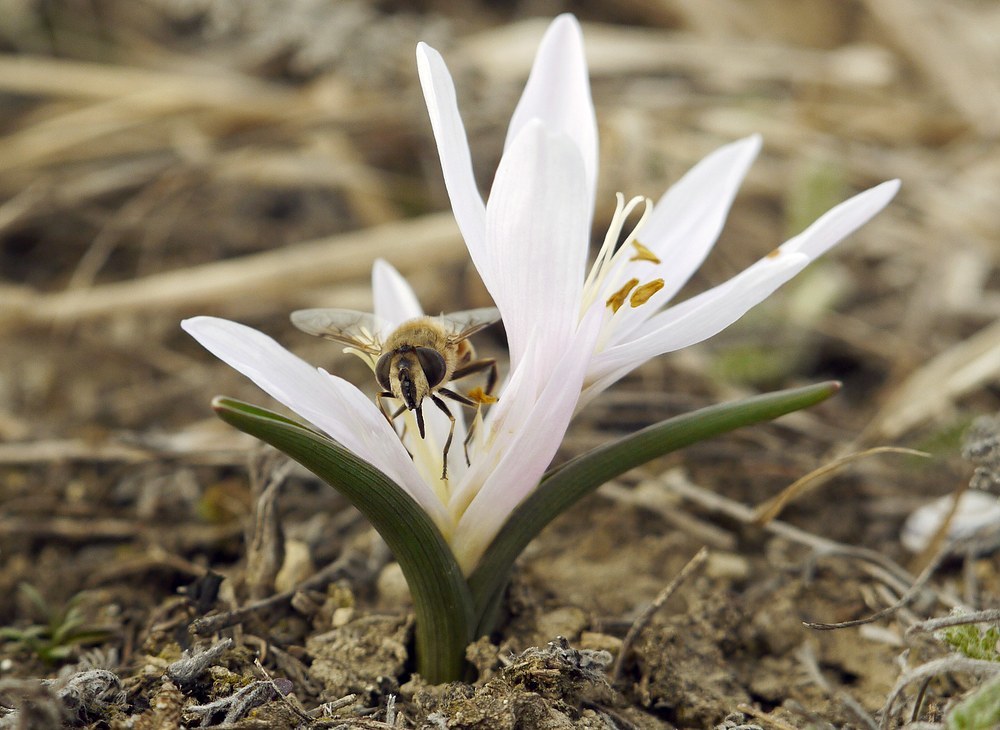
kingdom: Animalia
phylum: Arthropoda
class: Insecta
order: Diptera
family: Syrphidae
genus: Eristalis
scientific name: Eristalis tenax
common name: Drone fly
